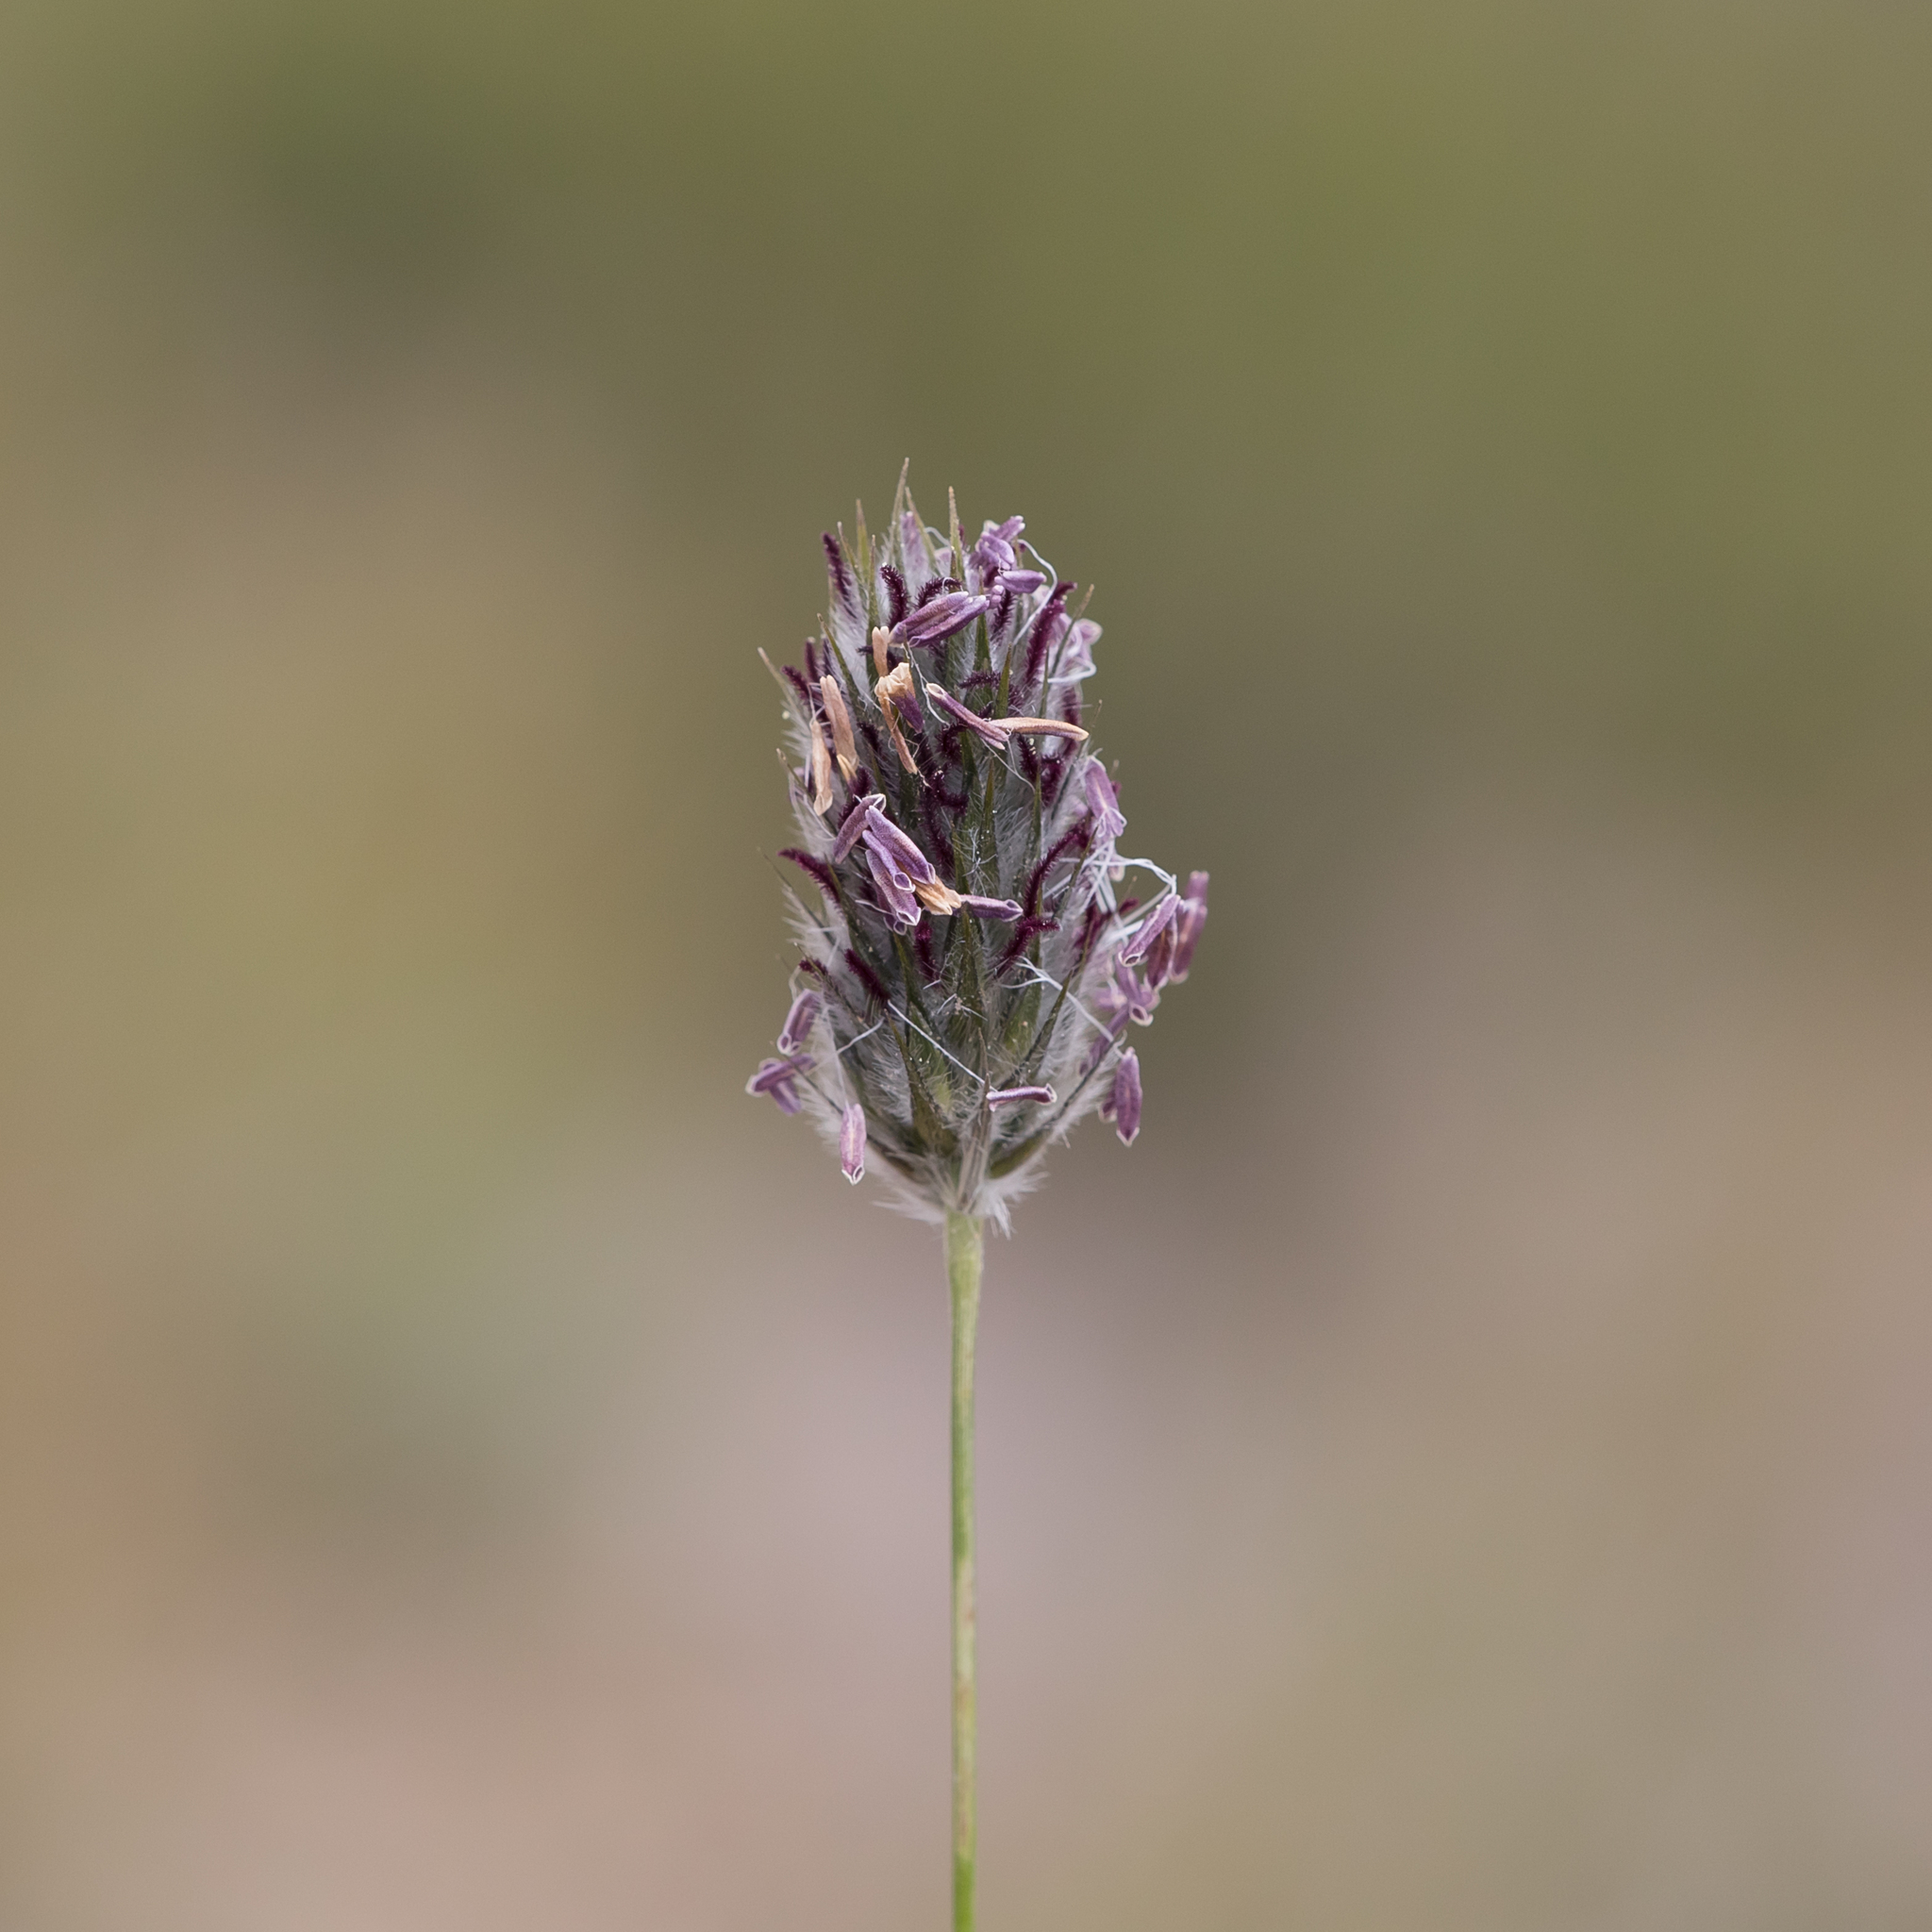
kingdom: Plantae
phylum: Tracheophyta
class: Liliopsida
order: Poales
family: Poaceae
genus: Neurachne
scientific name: Neurachne alopecuroidea
